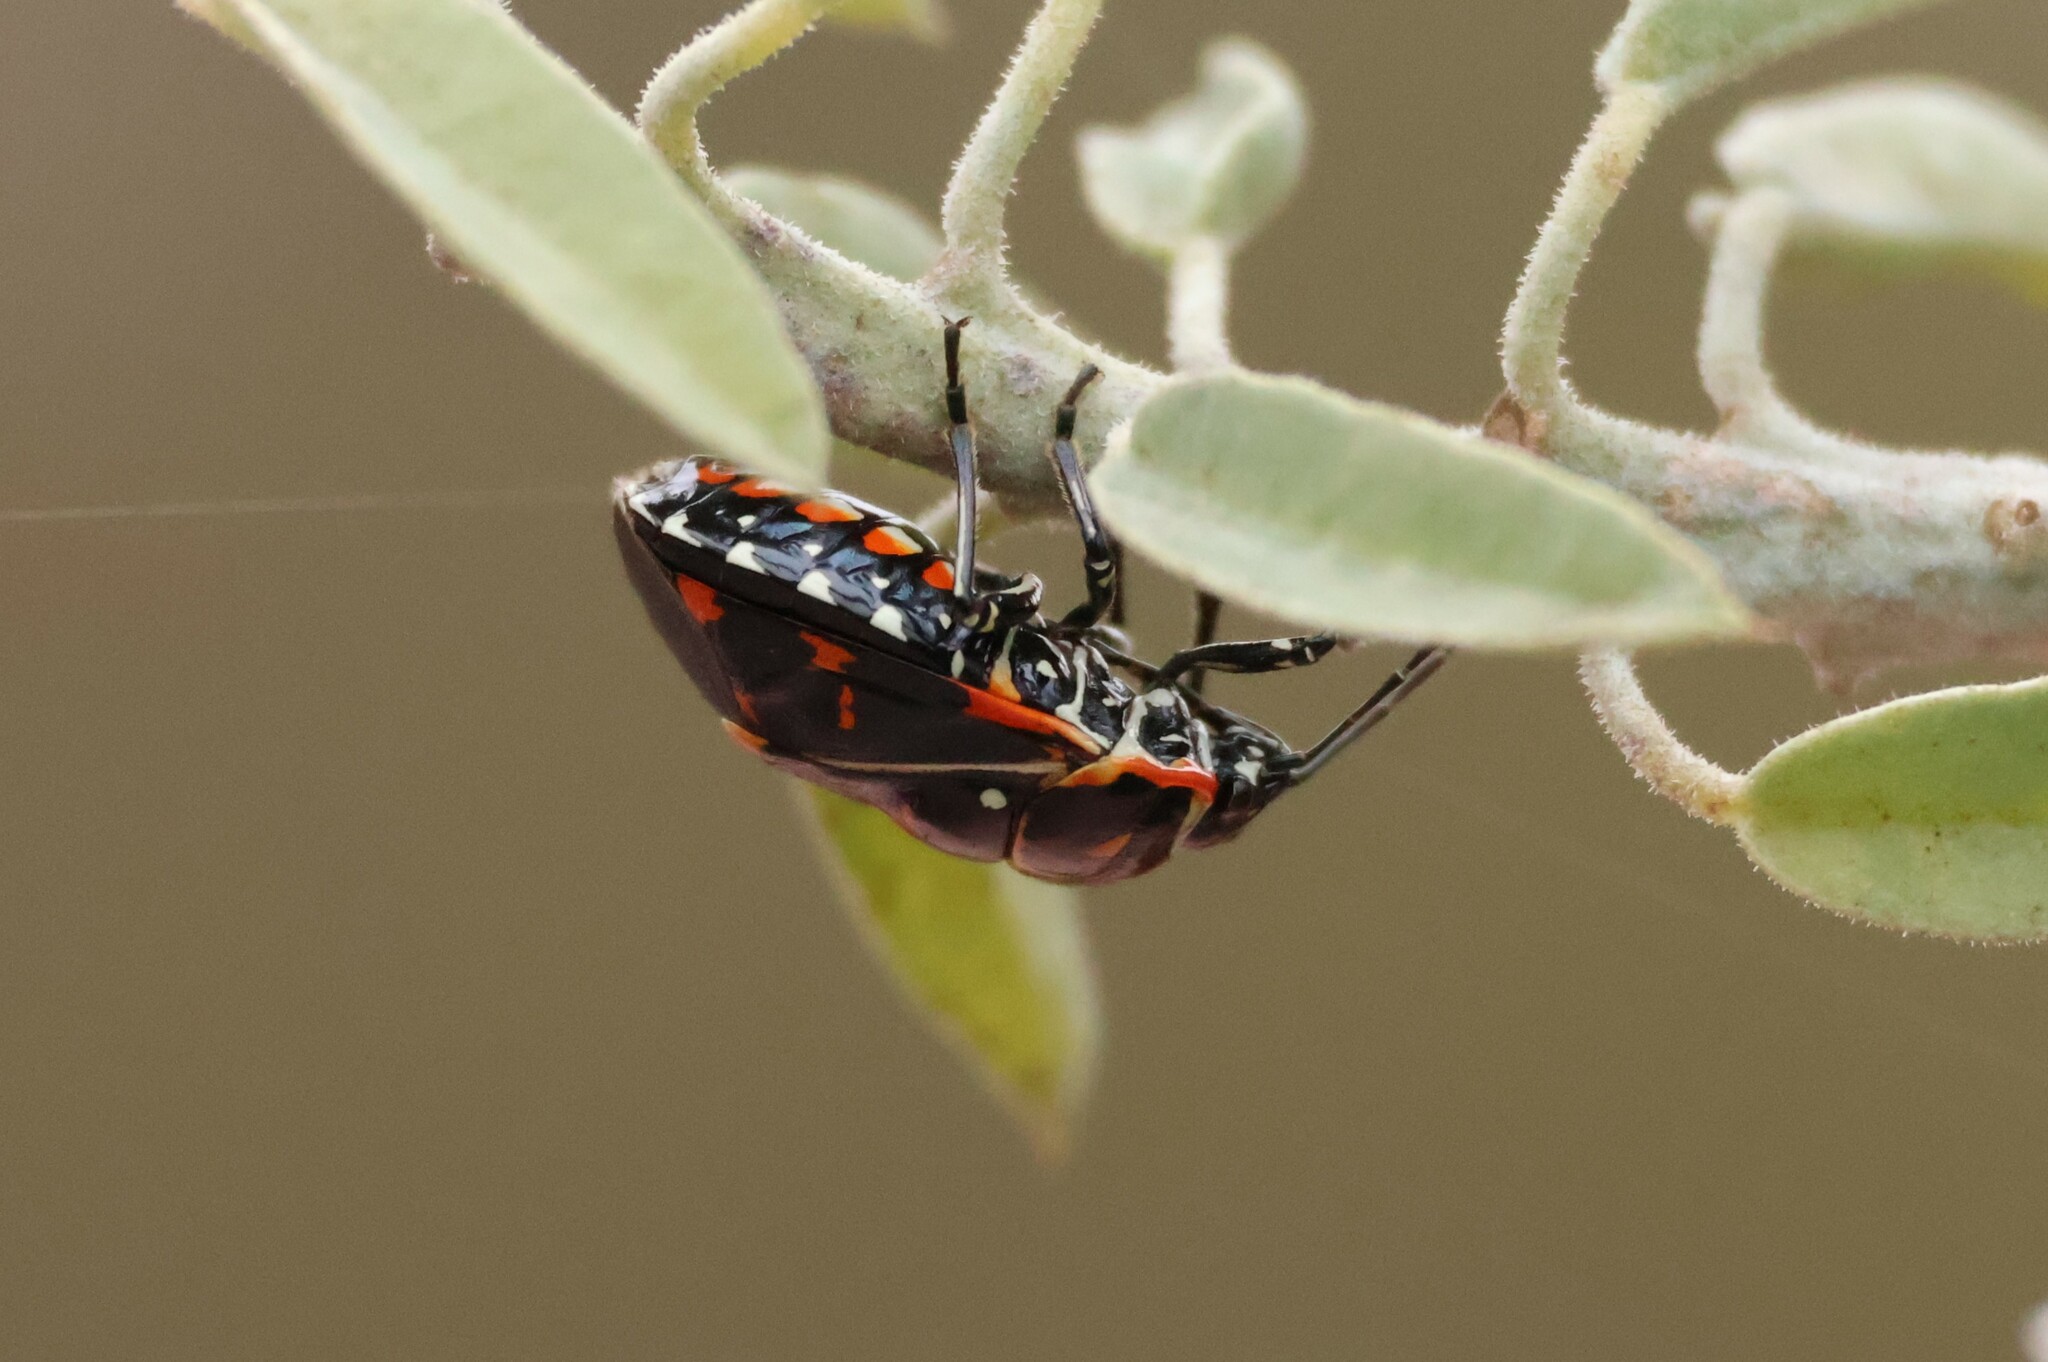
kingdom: Animalia
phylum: Arthropoda
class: Insecta
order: Hemiptera
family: Pentatomidae
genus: Murgantia
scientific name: Murgantia histrionica
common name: Harlequin bug
